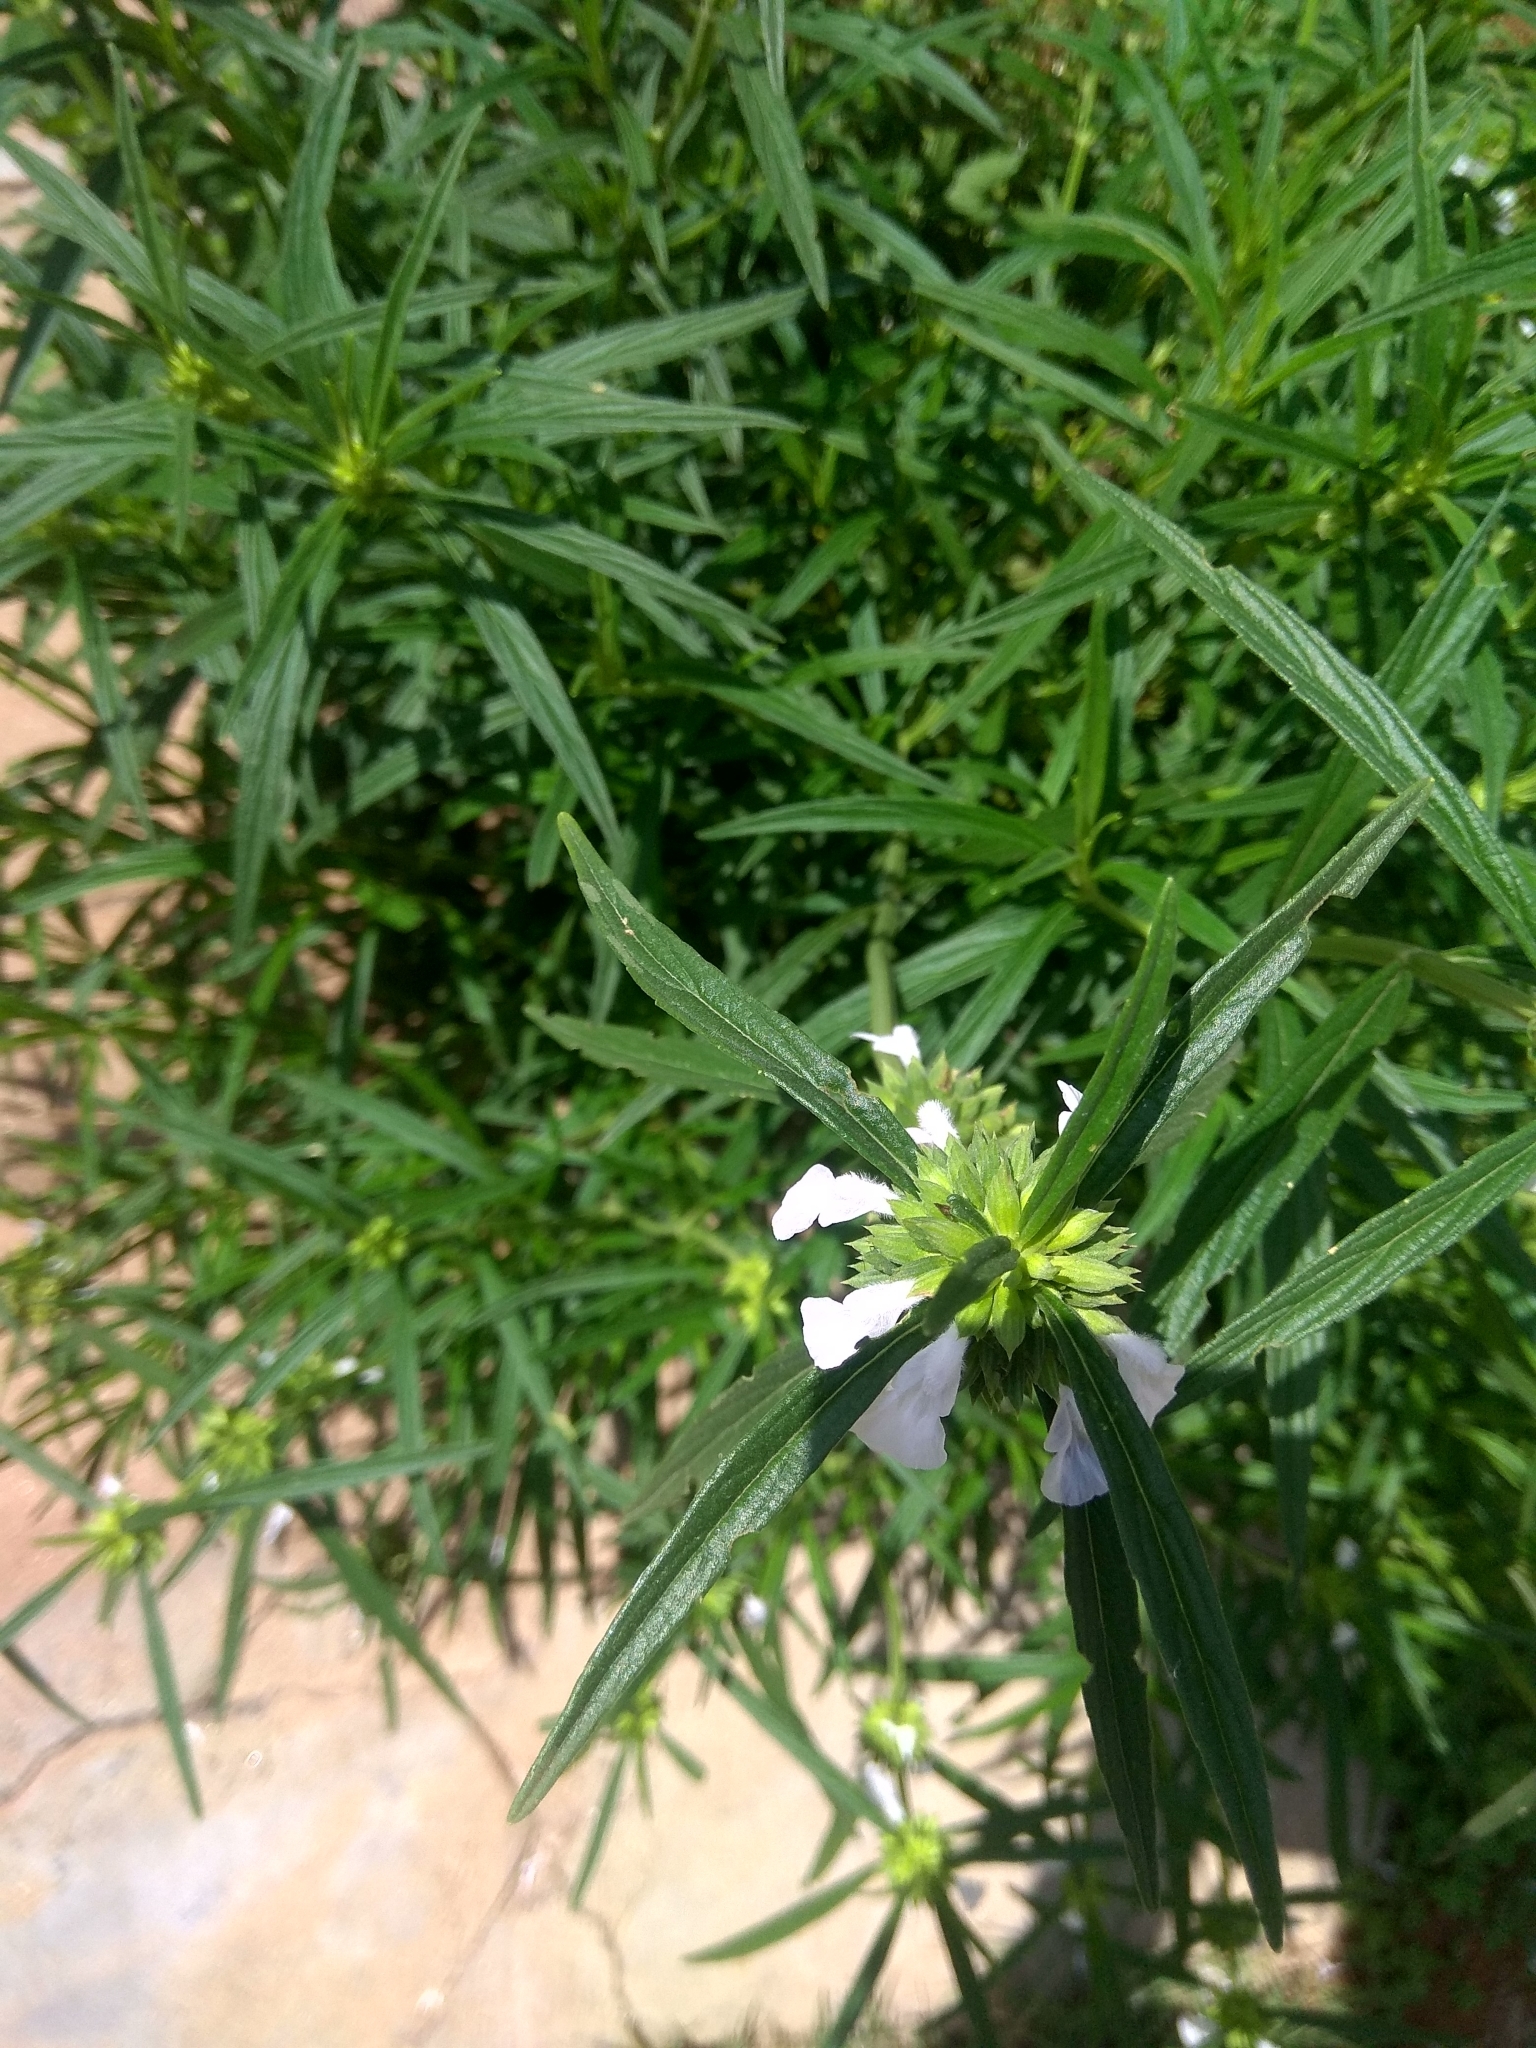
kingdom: Plantae
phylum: Tracheophyta
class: Magnoliopsida
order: Lamiales
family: Lamiaceae
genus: Leucas
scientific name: Leucas aspera
